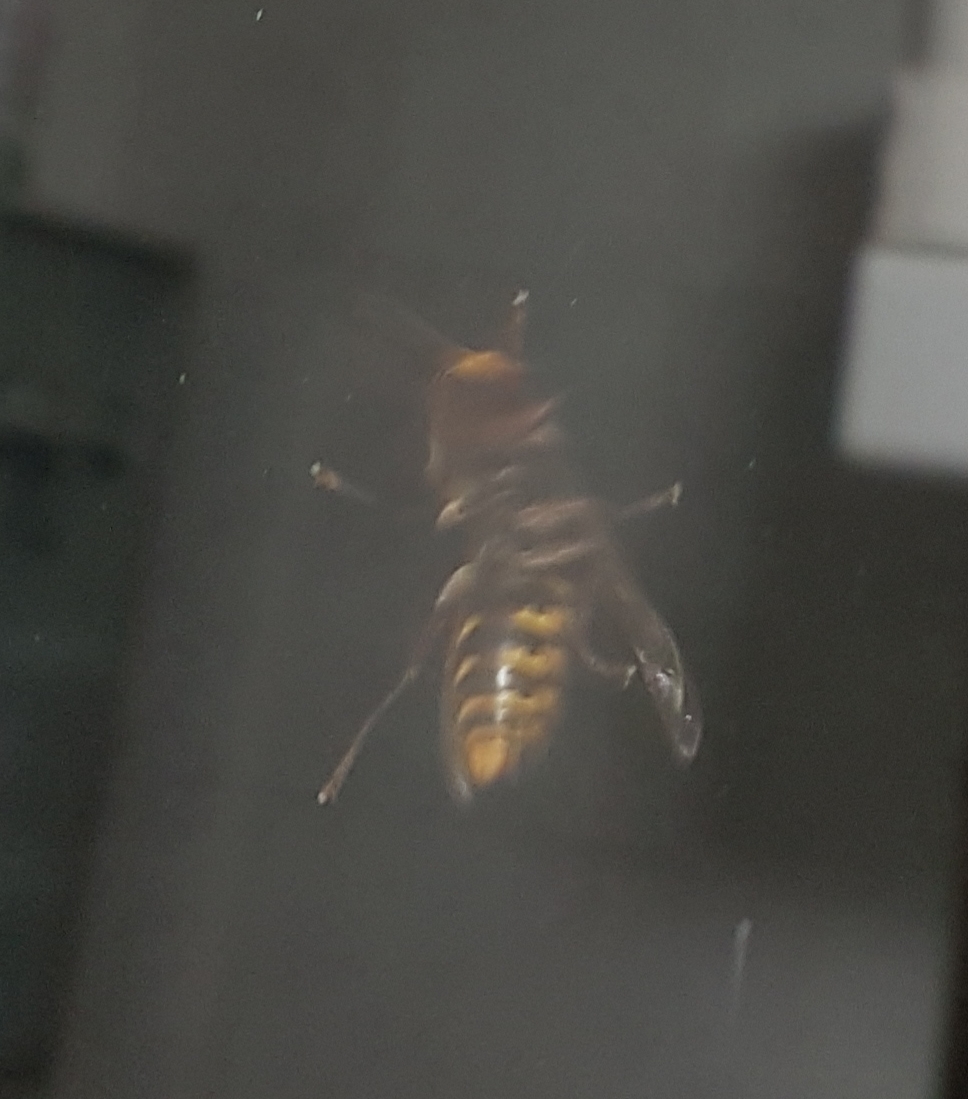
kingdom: Animalia
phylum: Arthropoda
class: Insecta
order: Hymenoptera
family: Vespidae
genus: Vespa
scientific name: Vespa crabro
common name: Hornet
